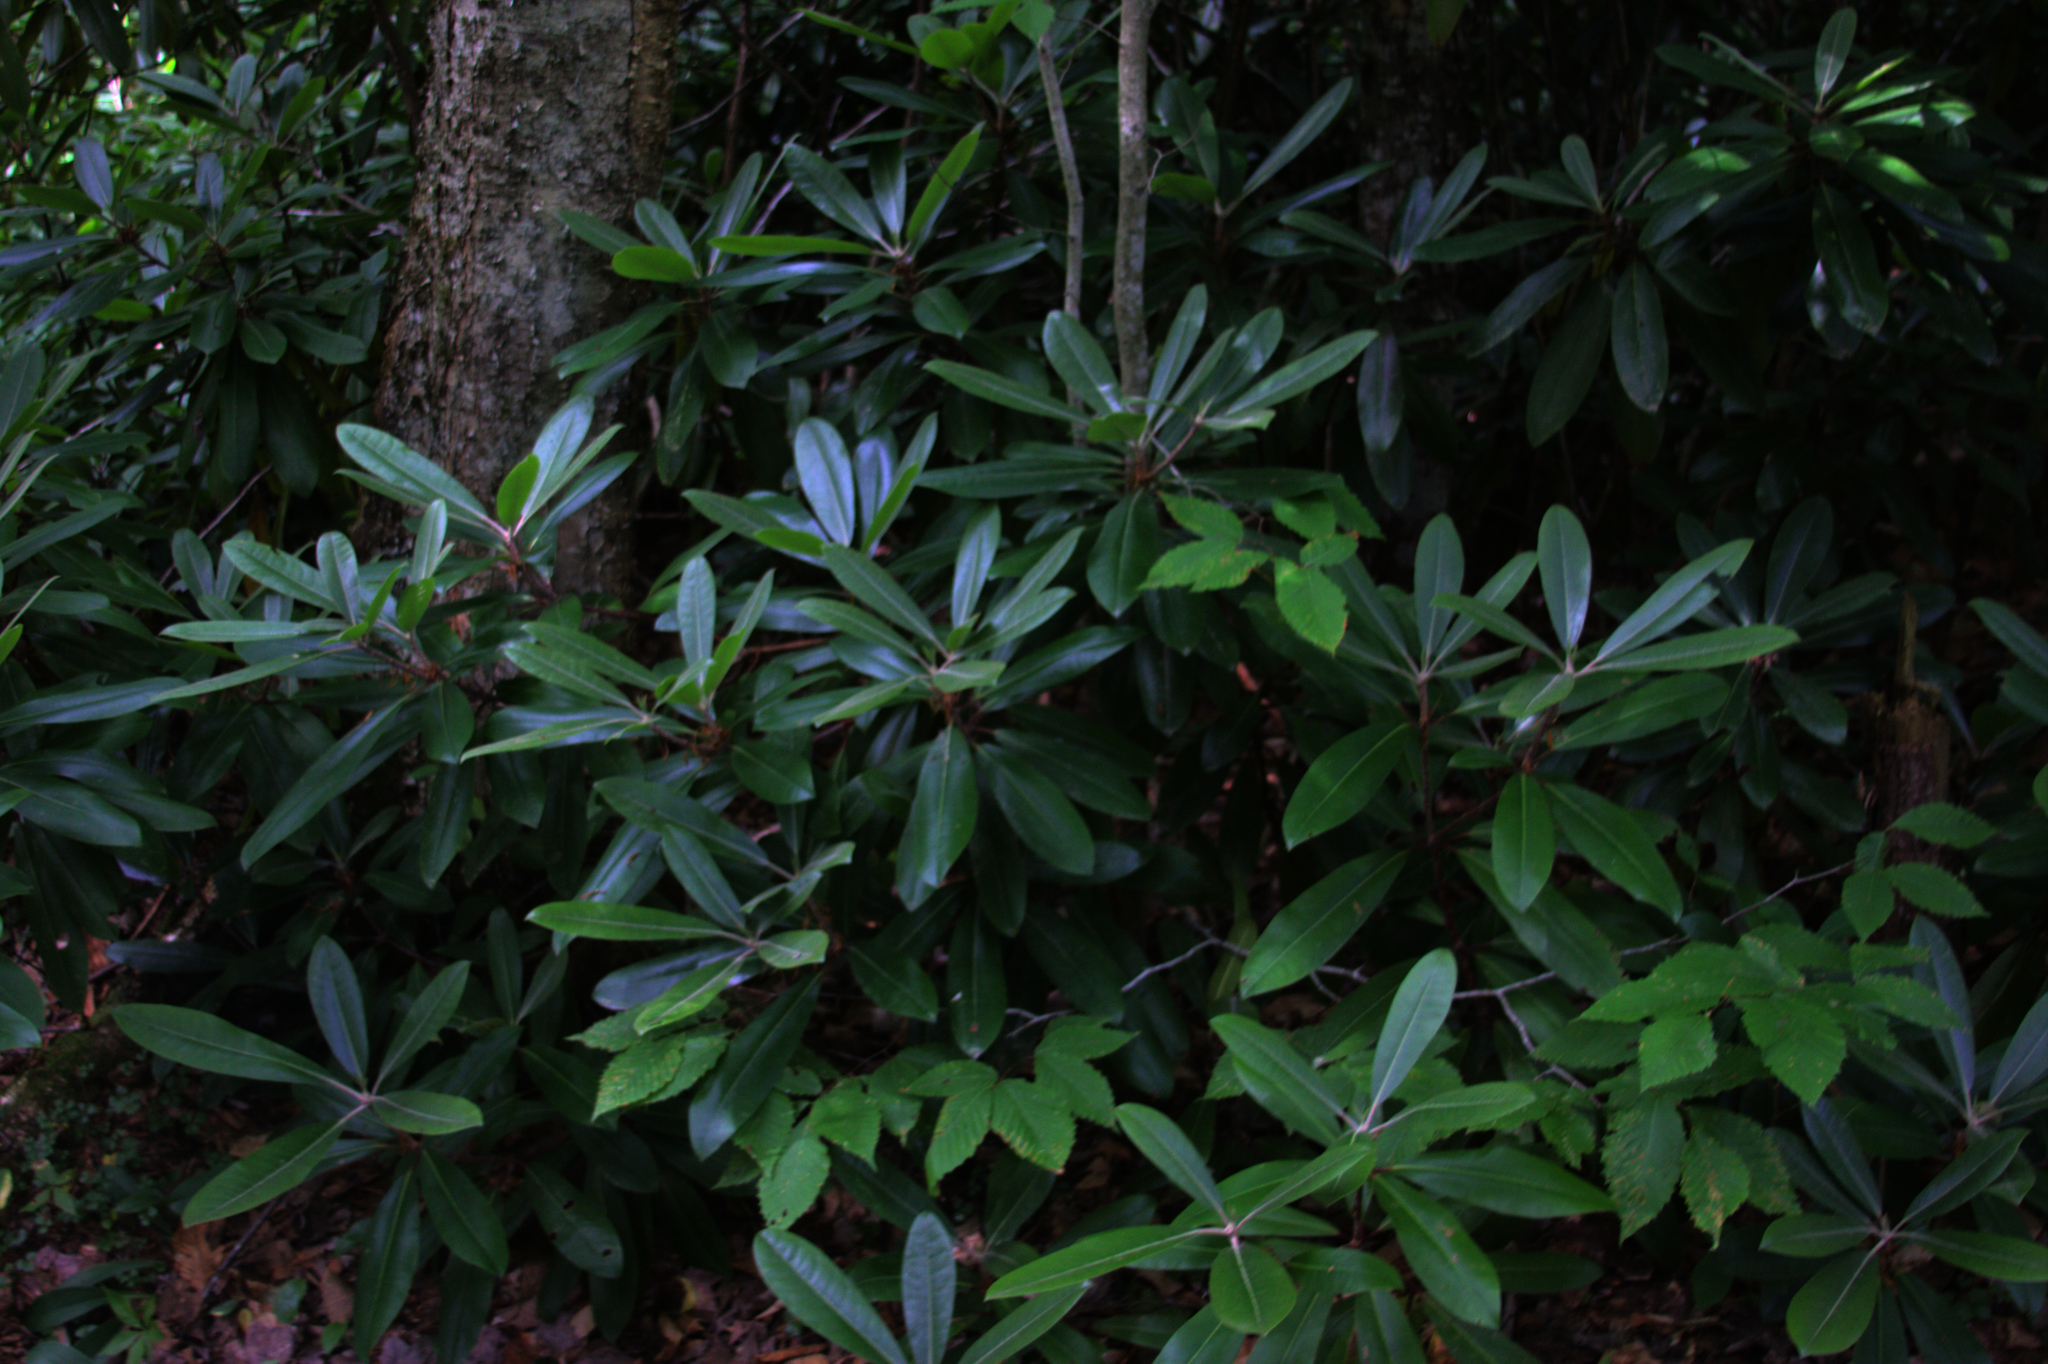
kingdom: Plantae
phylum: Tracheophyta
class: Magnoliopsida
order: Ericales
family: Ericaceae
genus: Rhododendron
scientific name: Rhododendron maximum
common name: Great rhododendron
